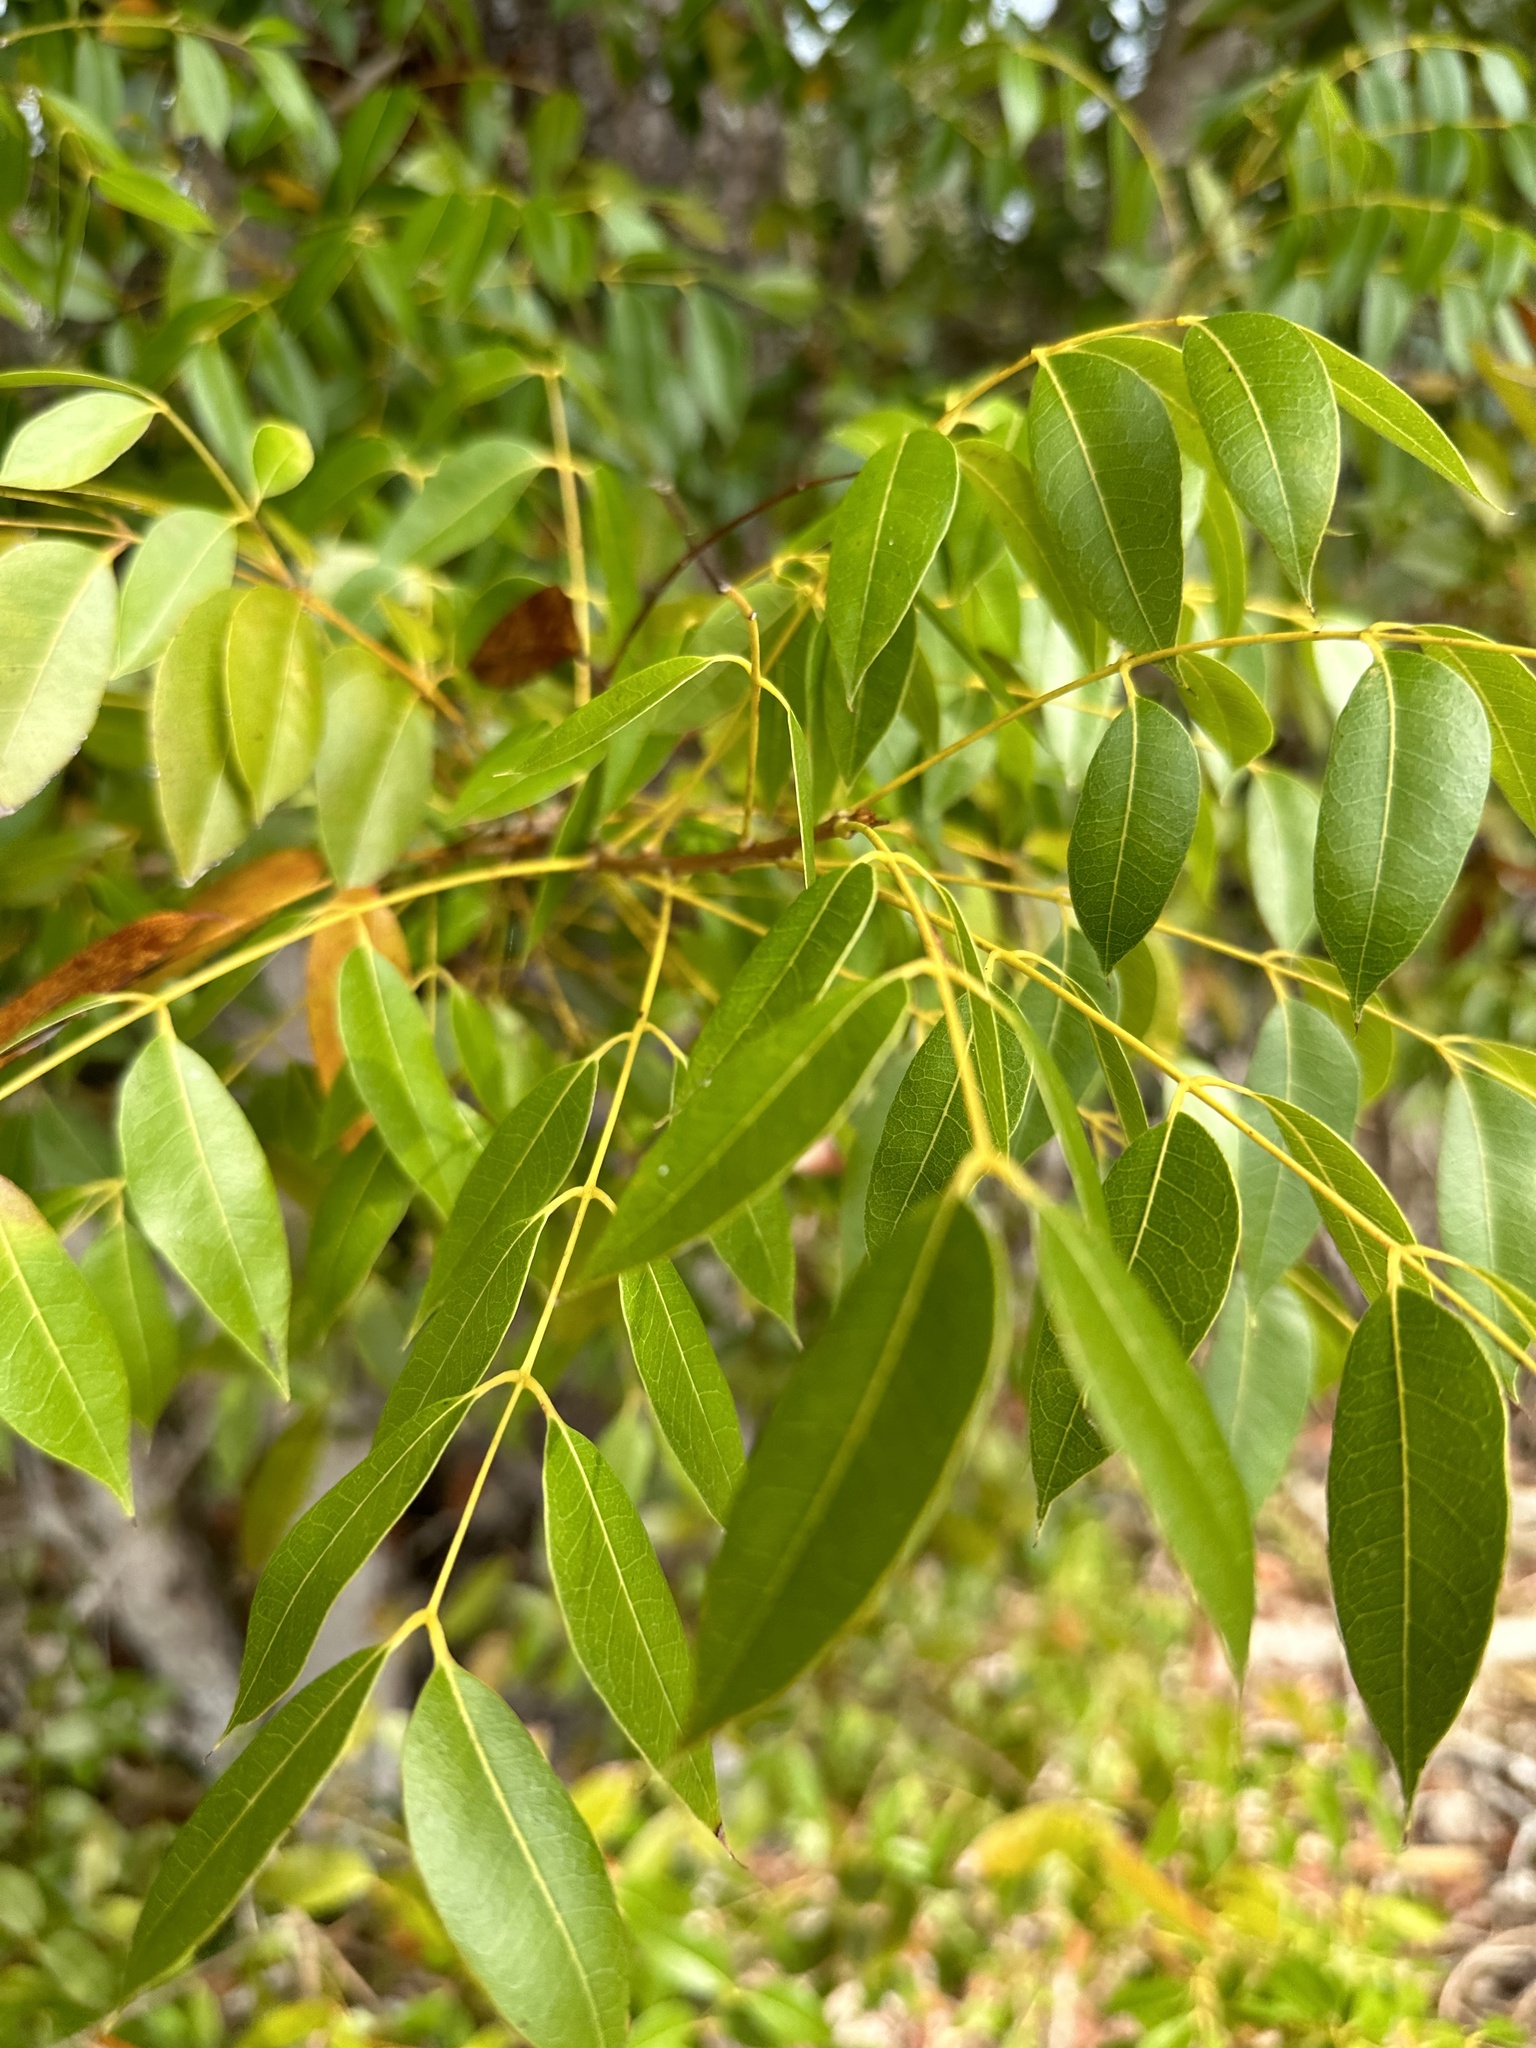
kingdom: Plantae
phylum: Tracheophyta
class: Magnoliopsida
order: Sapindales
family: Meliaceae
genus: Swietenia
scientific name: Swietenia mahagoni
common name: West indian mahogany
